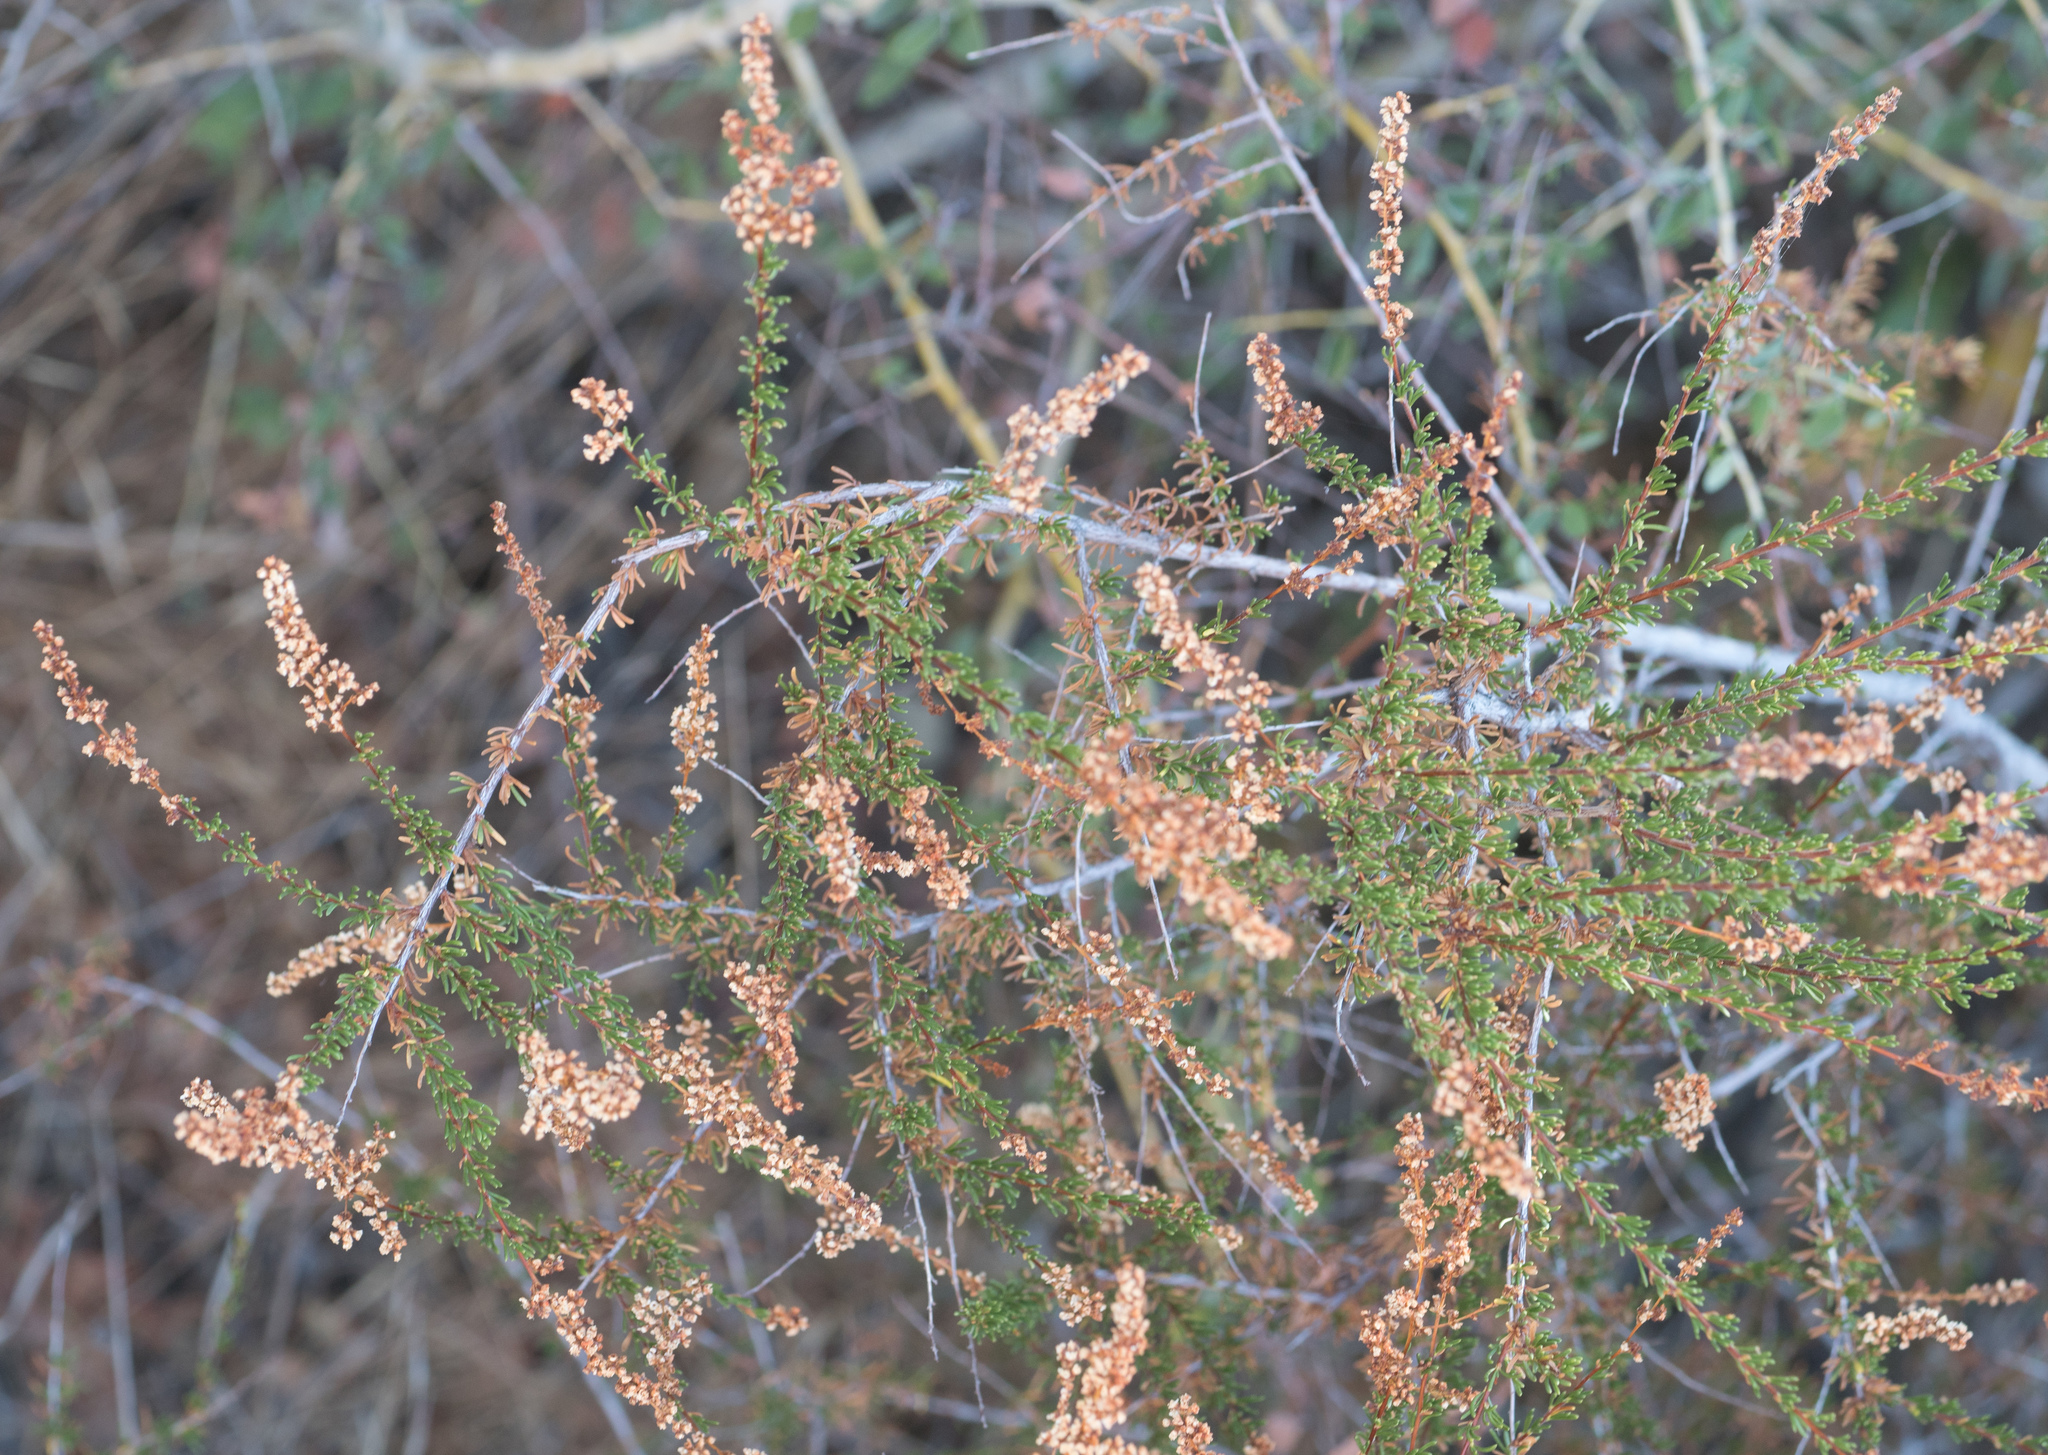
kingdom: Plantae
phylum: Tracheophyta
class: Magnoliopsida
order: Rosales
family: Rosaceae
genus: Adenostoma
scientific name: Adenostoma fasciculatum
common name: Chamise
